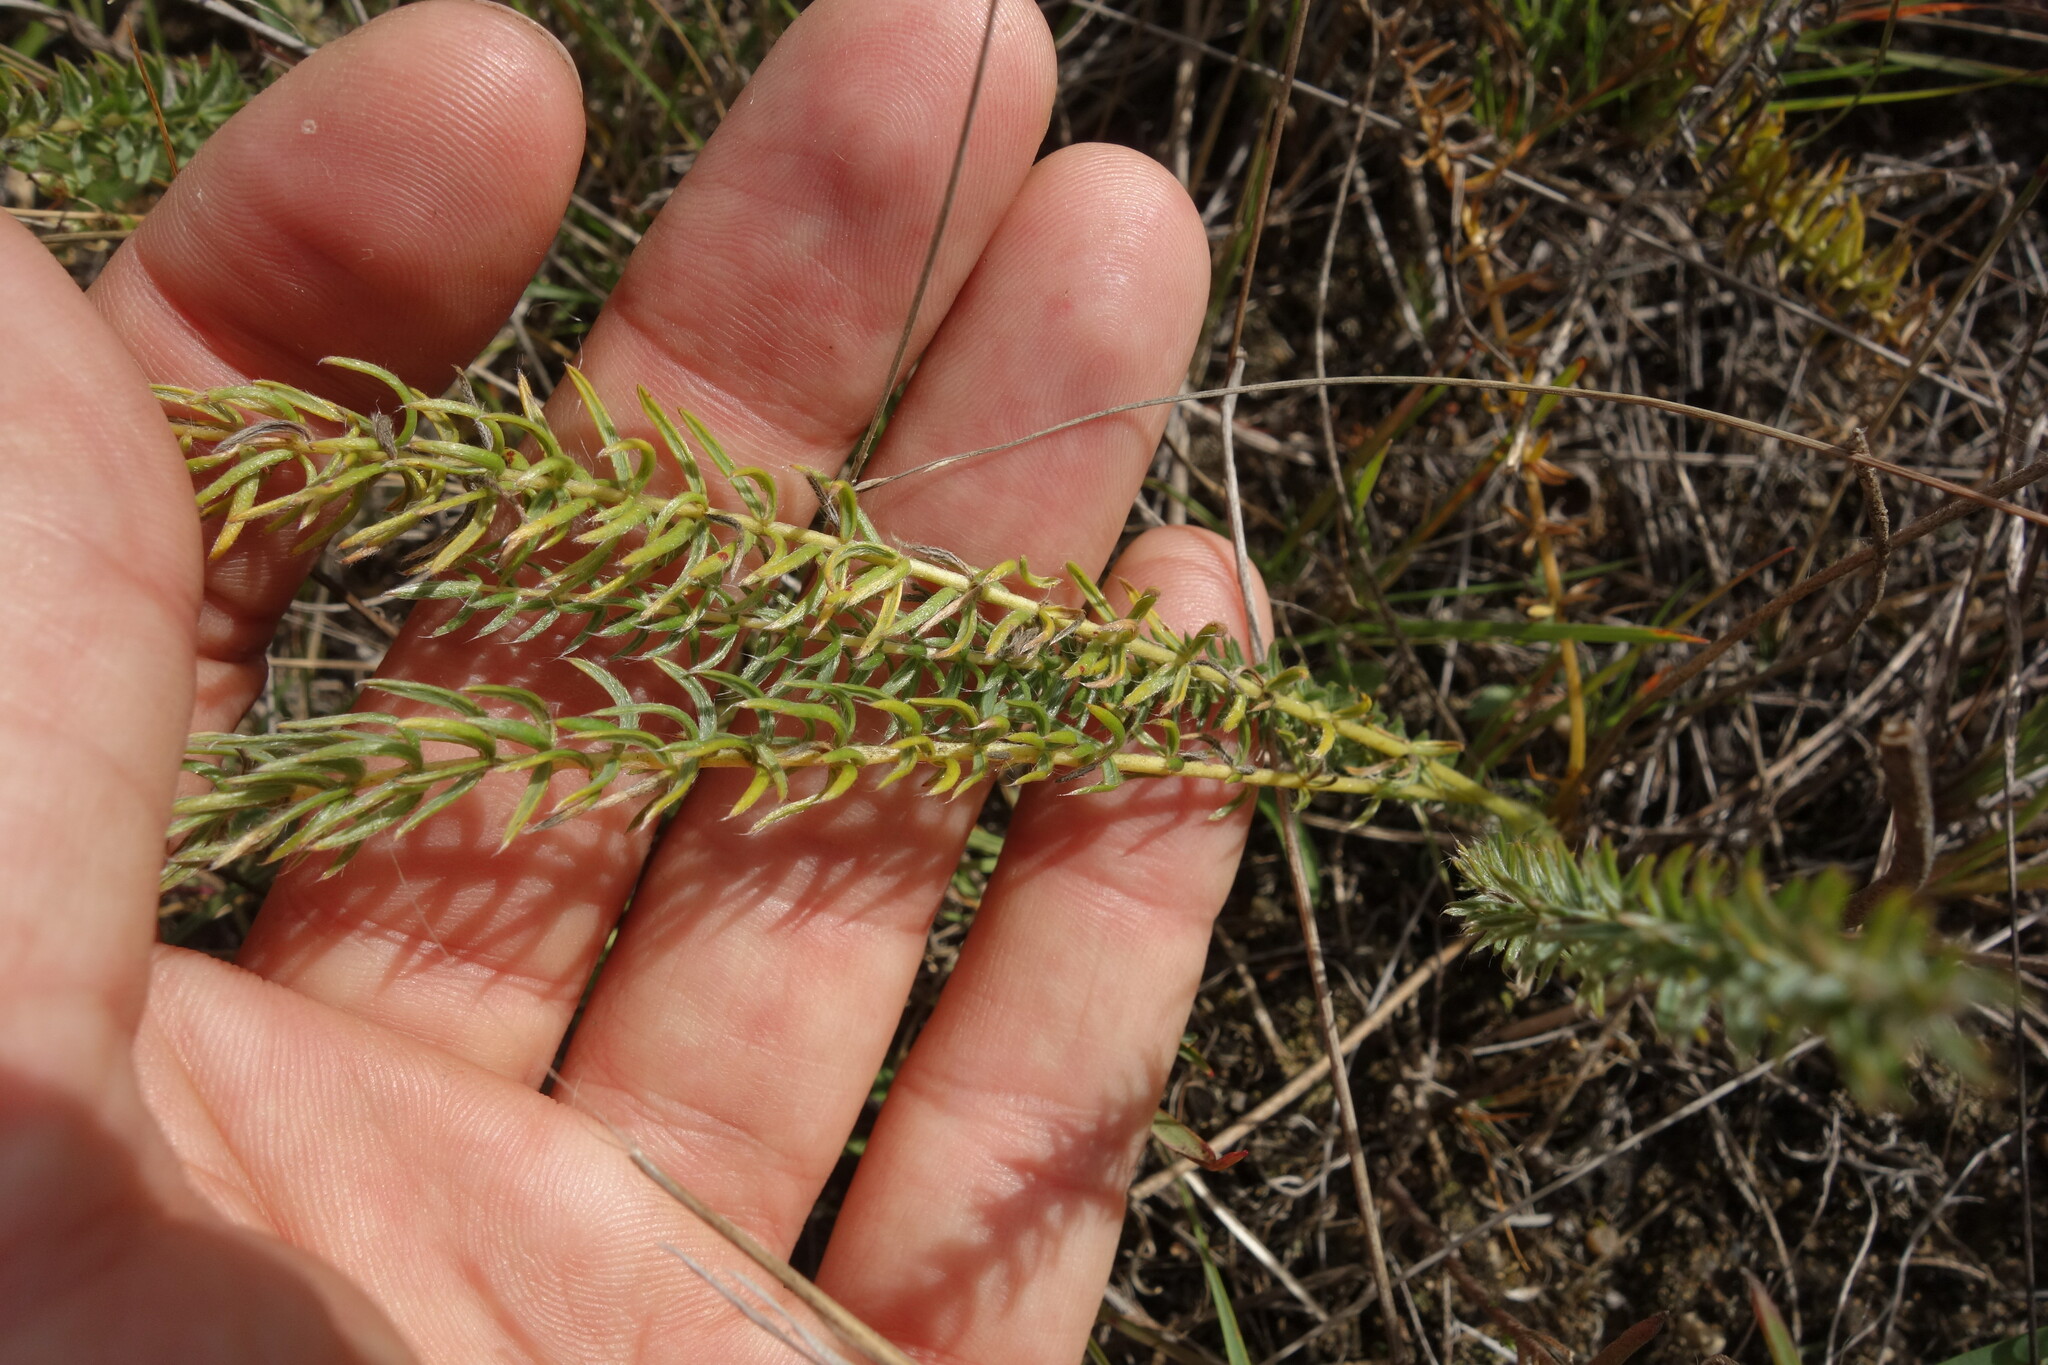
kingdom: Plantae
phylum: Tracheophyta
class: Magnoliopsida
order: Fabales
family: Fabaceae
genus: Oxytropis
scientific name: Oxytropis myriophylla
